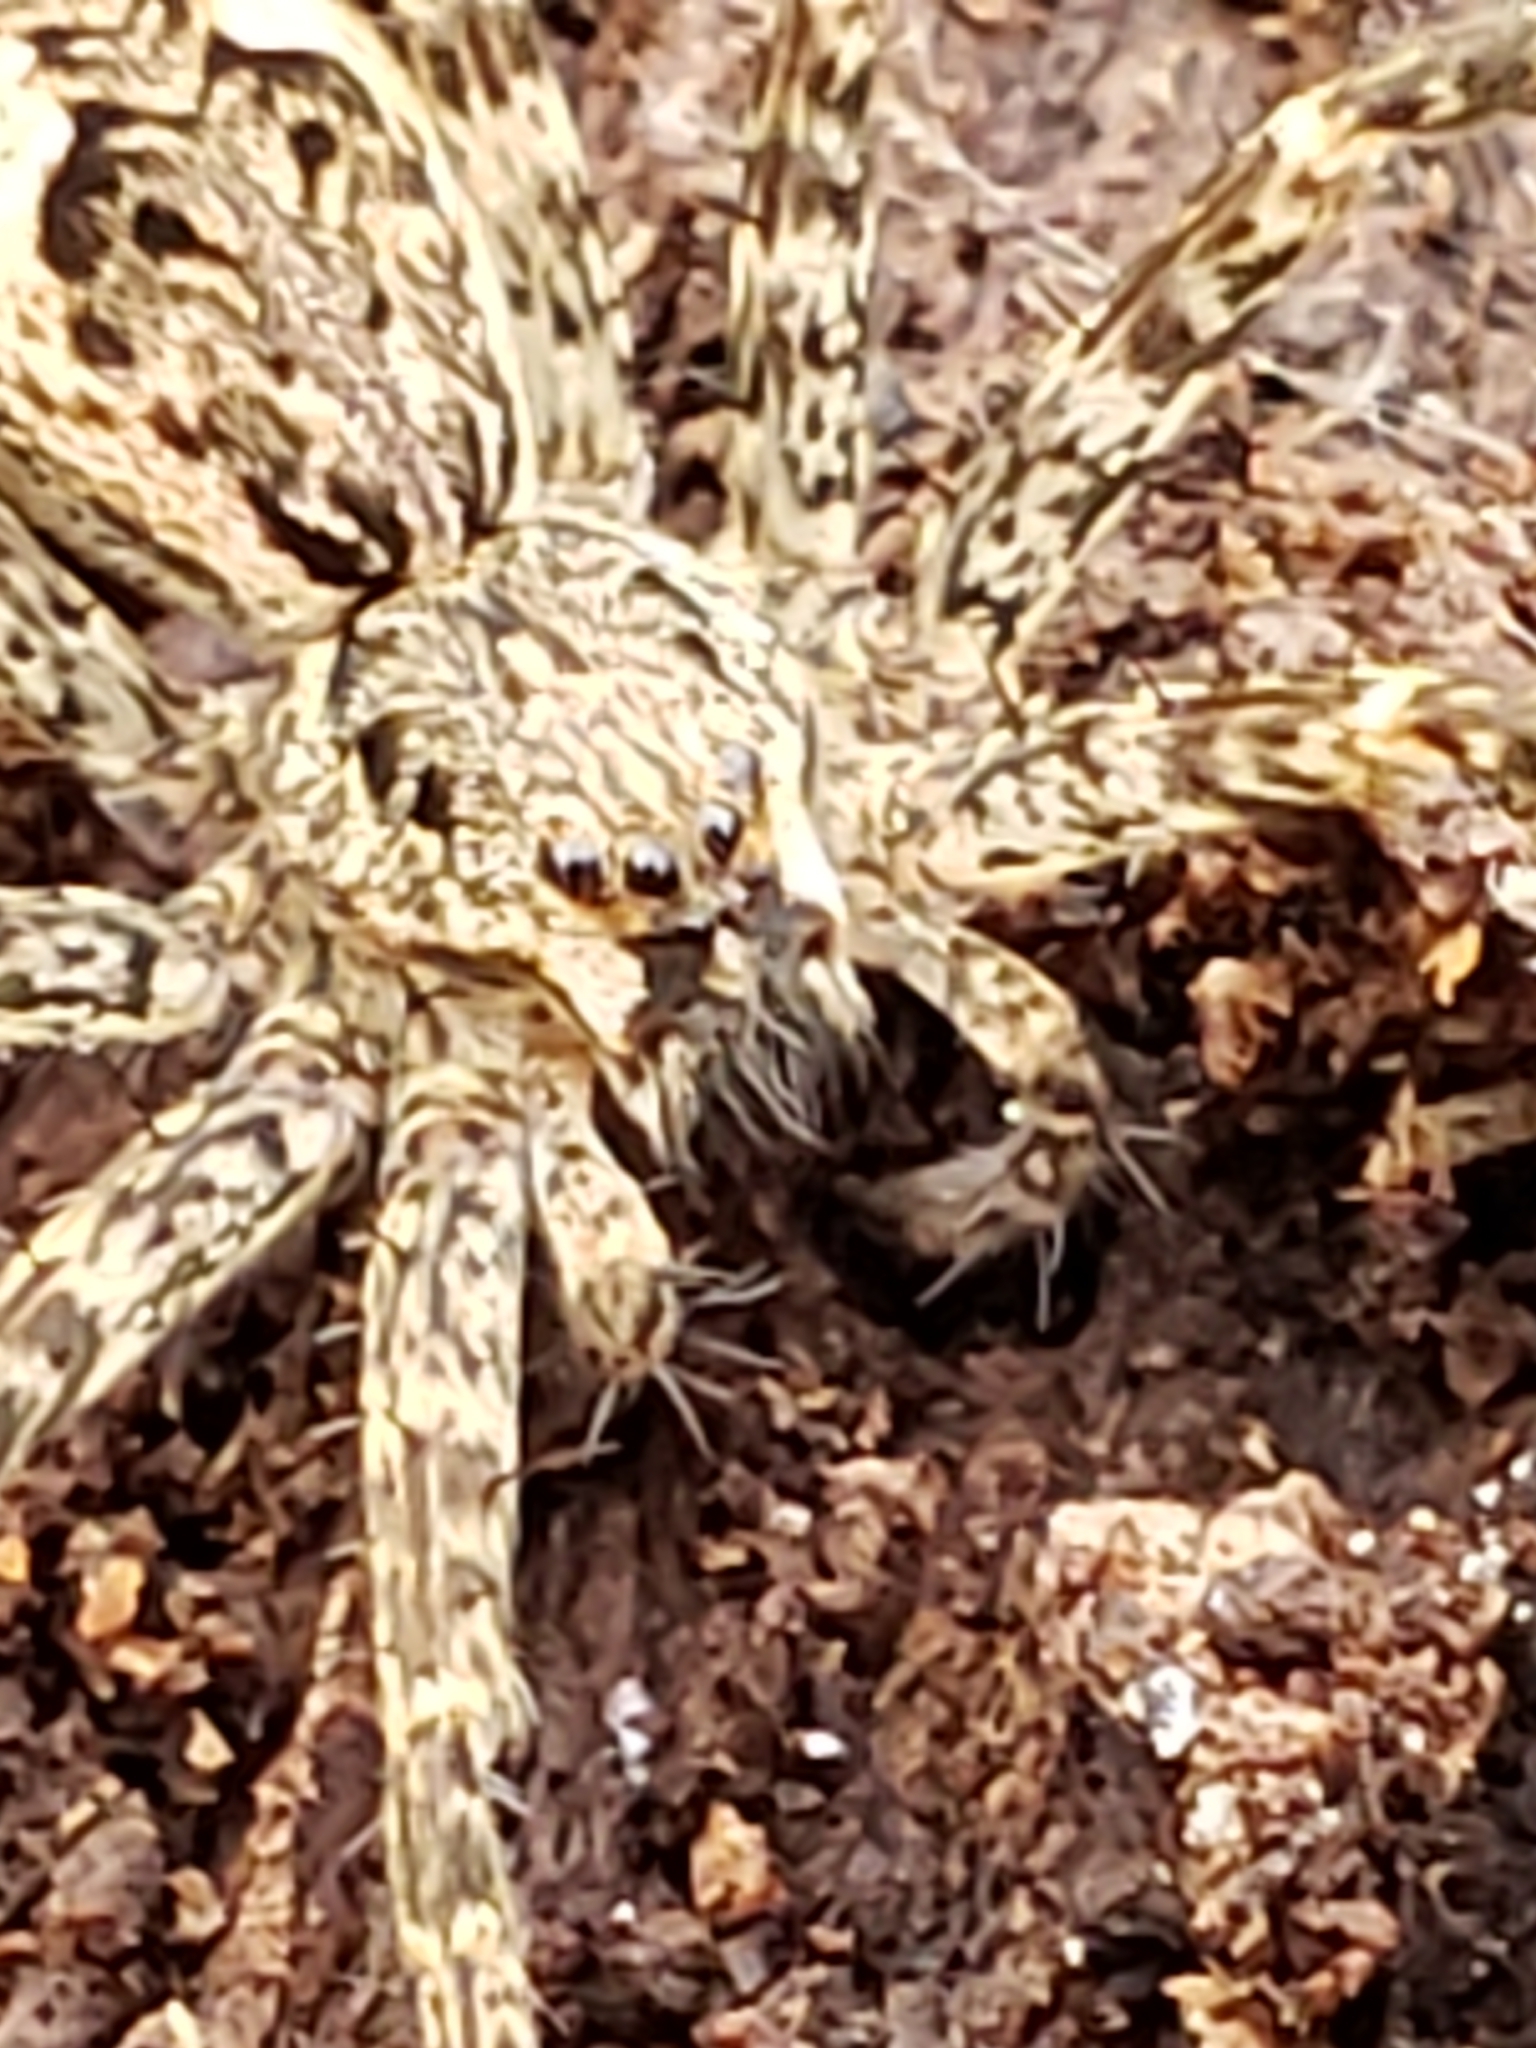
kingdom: Animalia
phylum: Arthropoda
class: Arachnida
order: Araneae
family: Pisauridae
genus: Dolomedes
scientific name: Dolomedes tenebrosus
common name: Dark fishing spider
